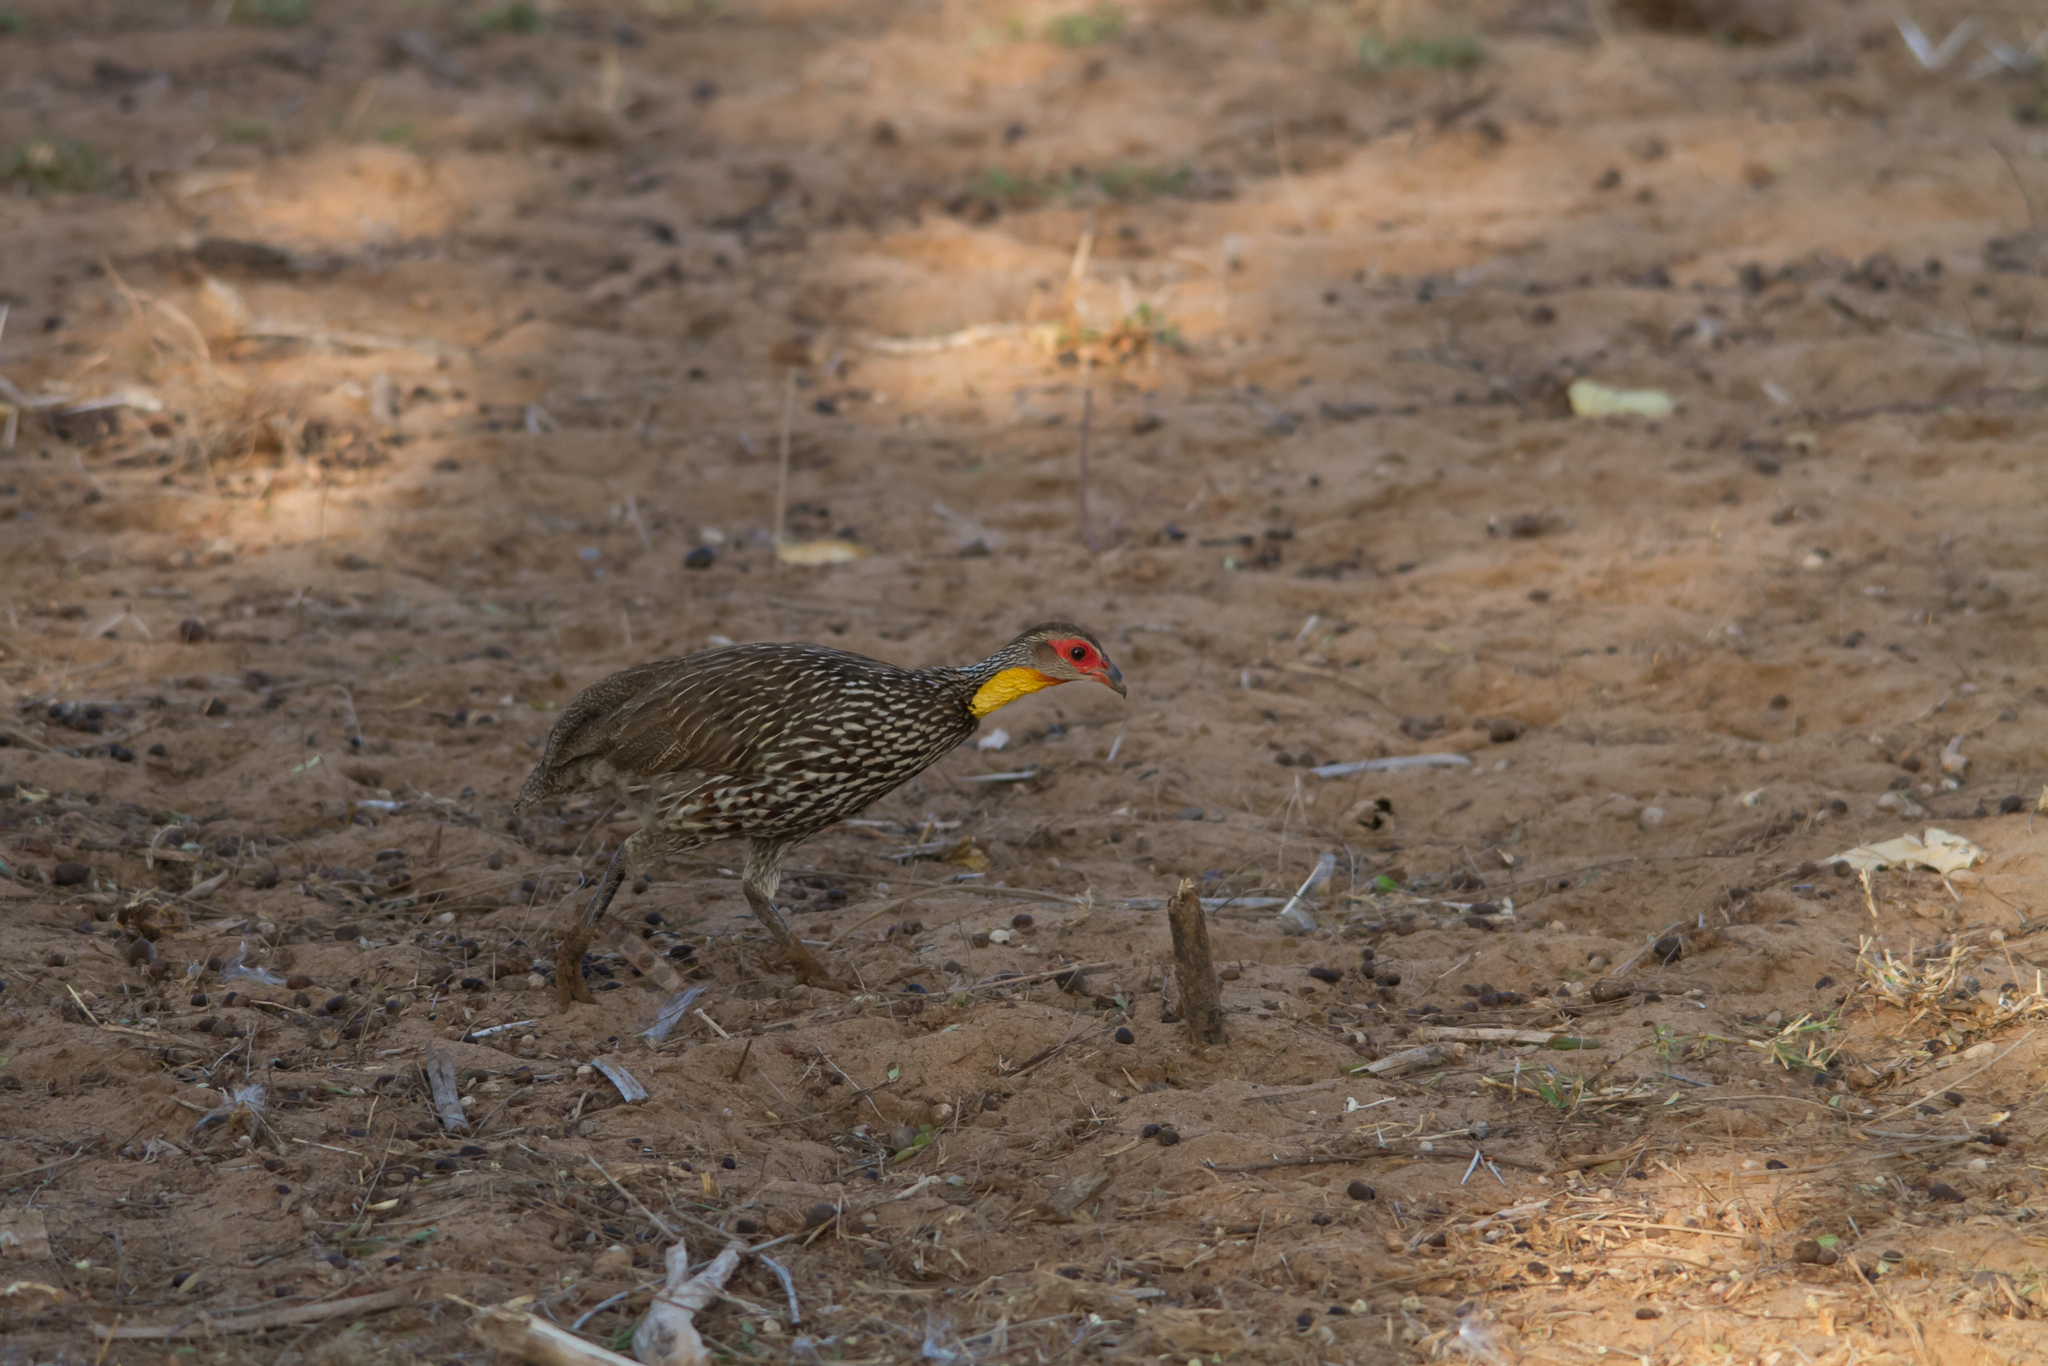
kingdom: Animalia
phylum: Chordata
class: Aves
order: Galliformes
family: Phasianidae
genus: Pternistis
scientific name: Pternistis leucoscepus
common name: Yellow-necked spurfowl
